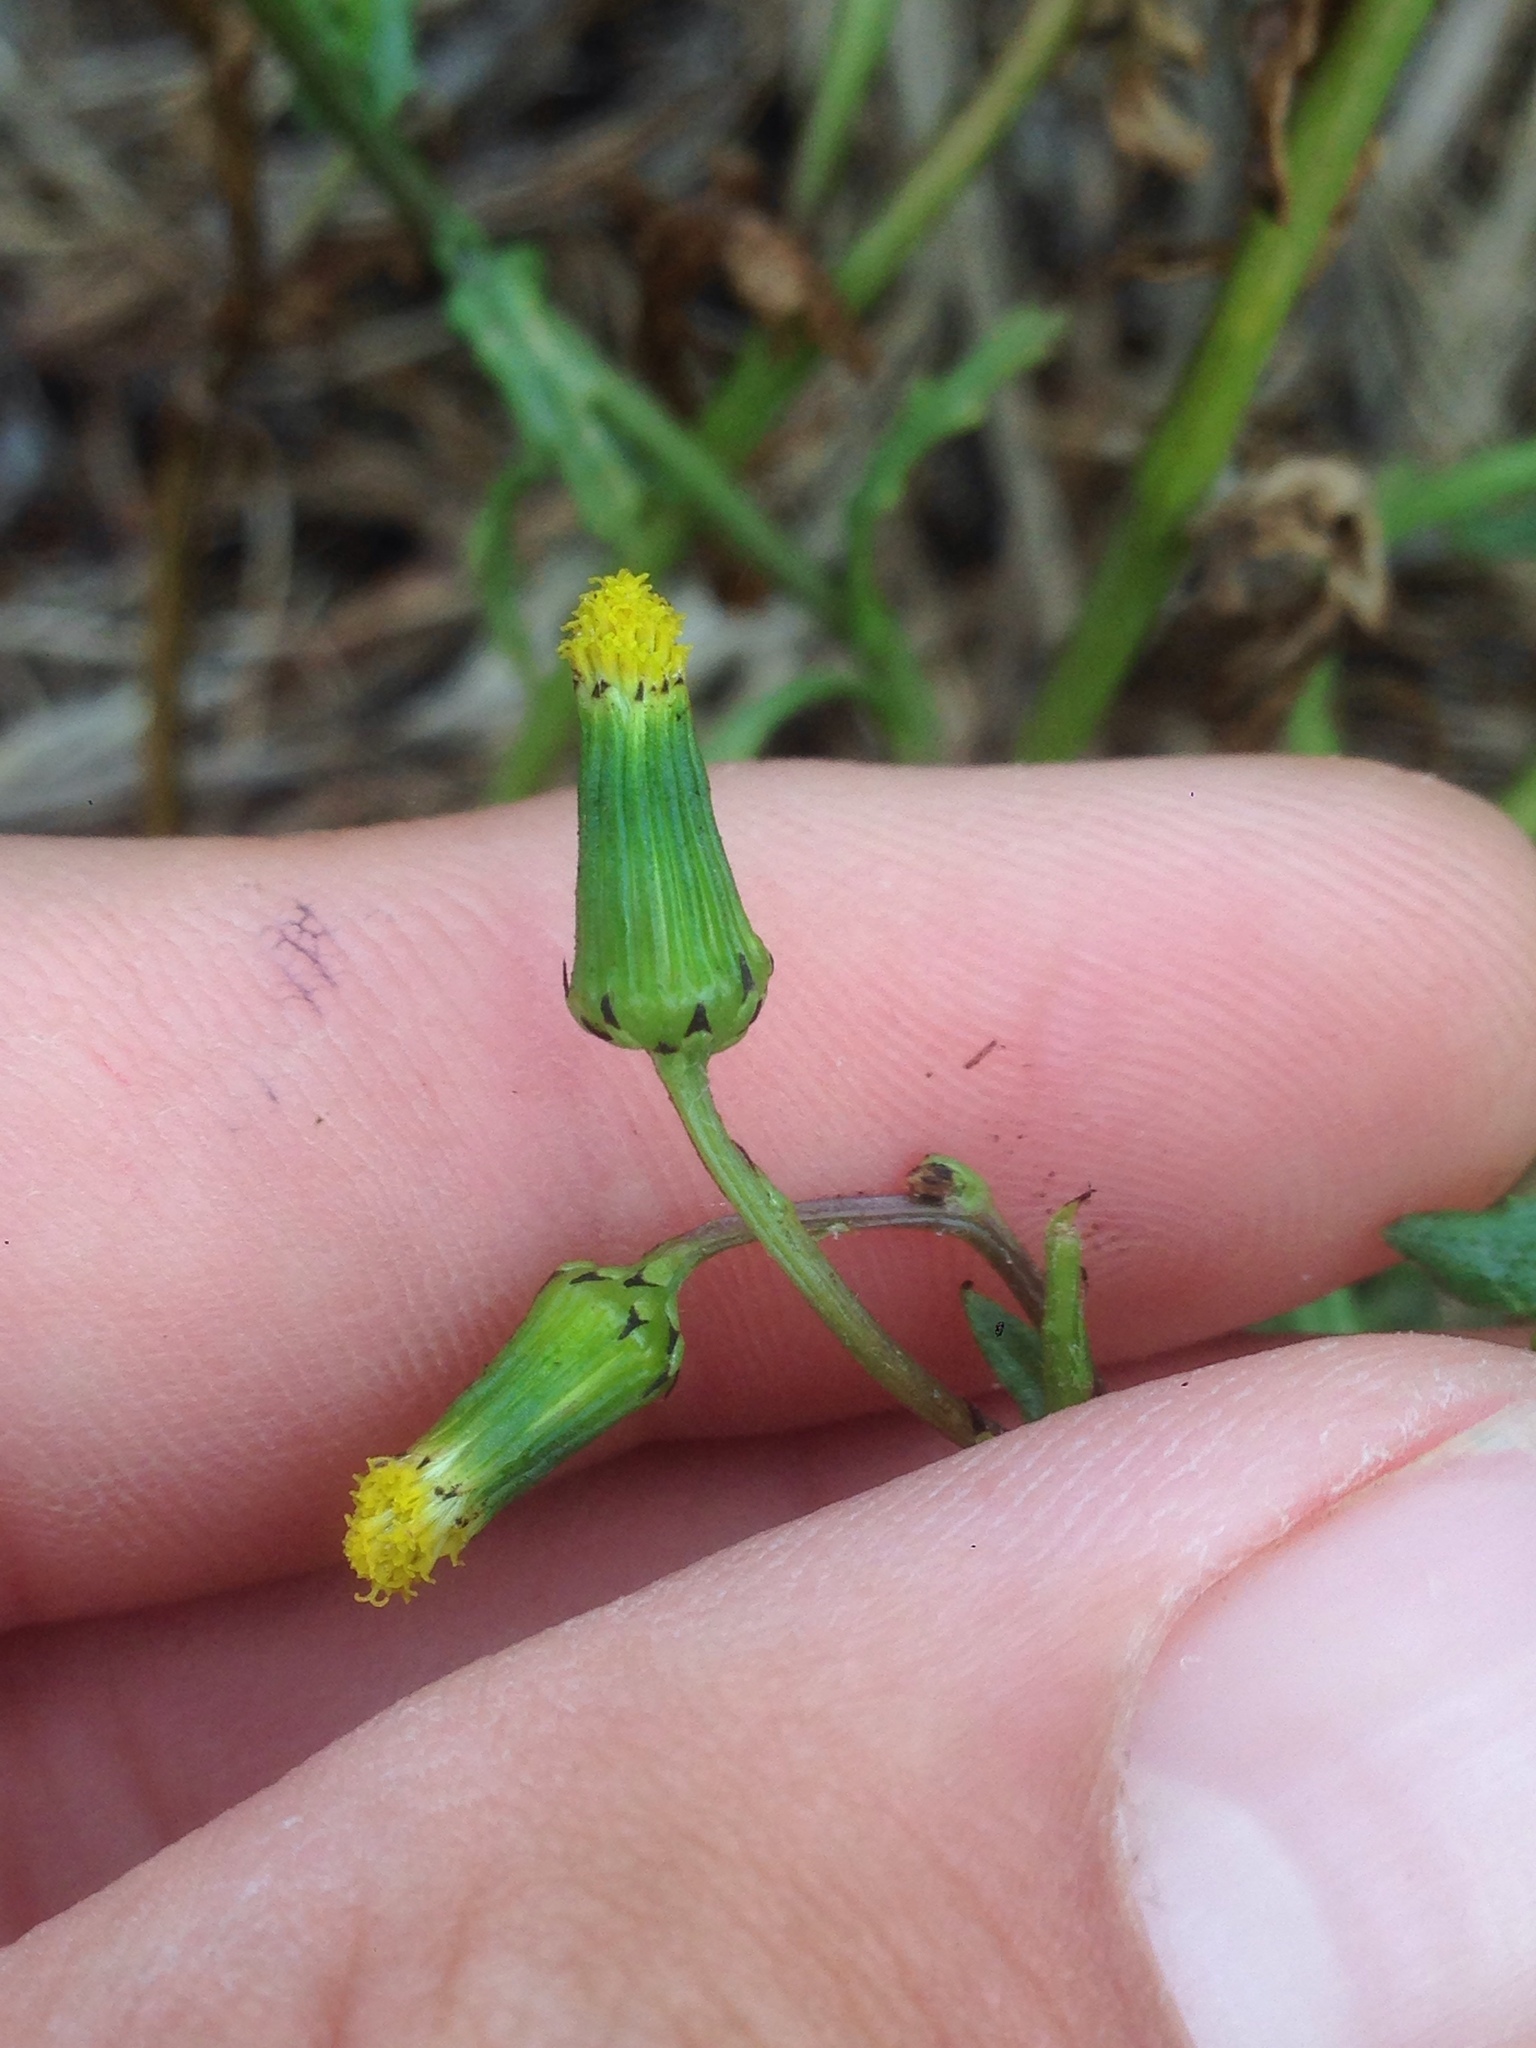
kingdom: Plantae
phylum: Tracheophyta
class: Magnoliopsida
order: Asterales
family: Asteraceae
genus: Senecio
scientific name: Senecio vulgaris
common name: Old-man-in-the-spring
